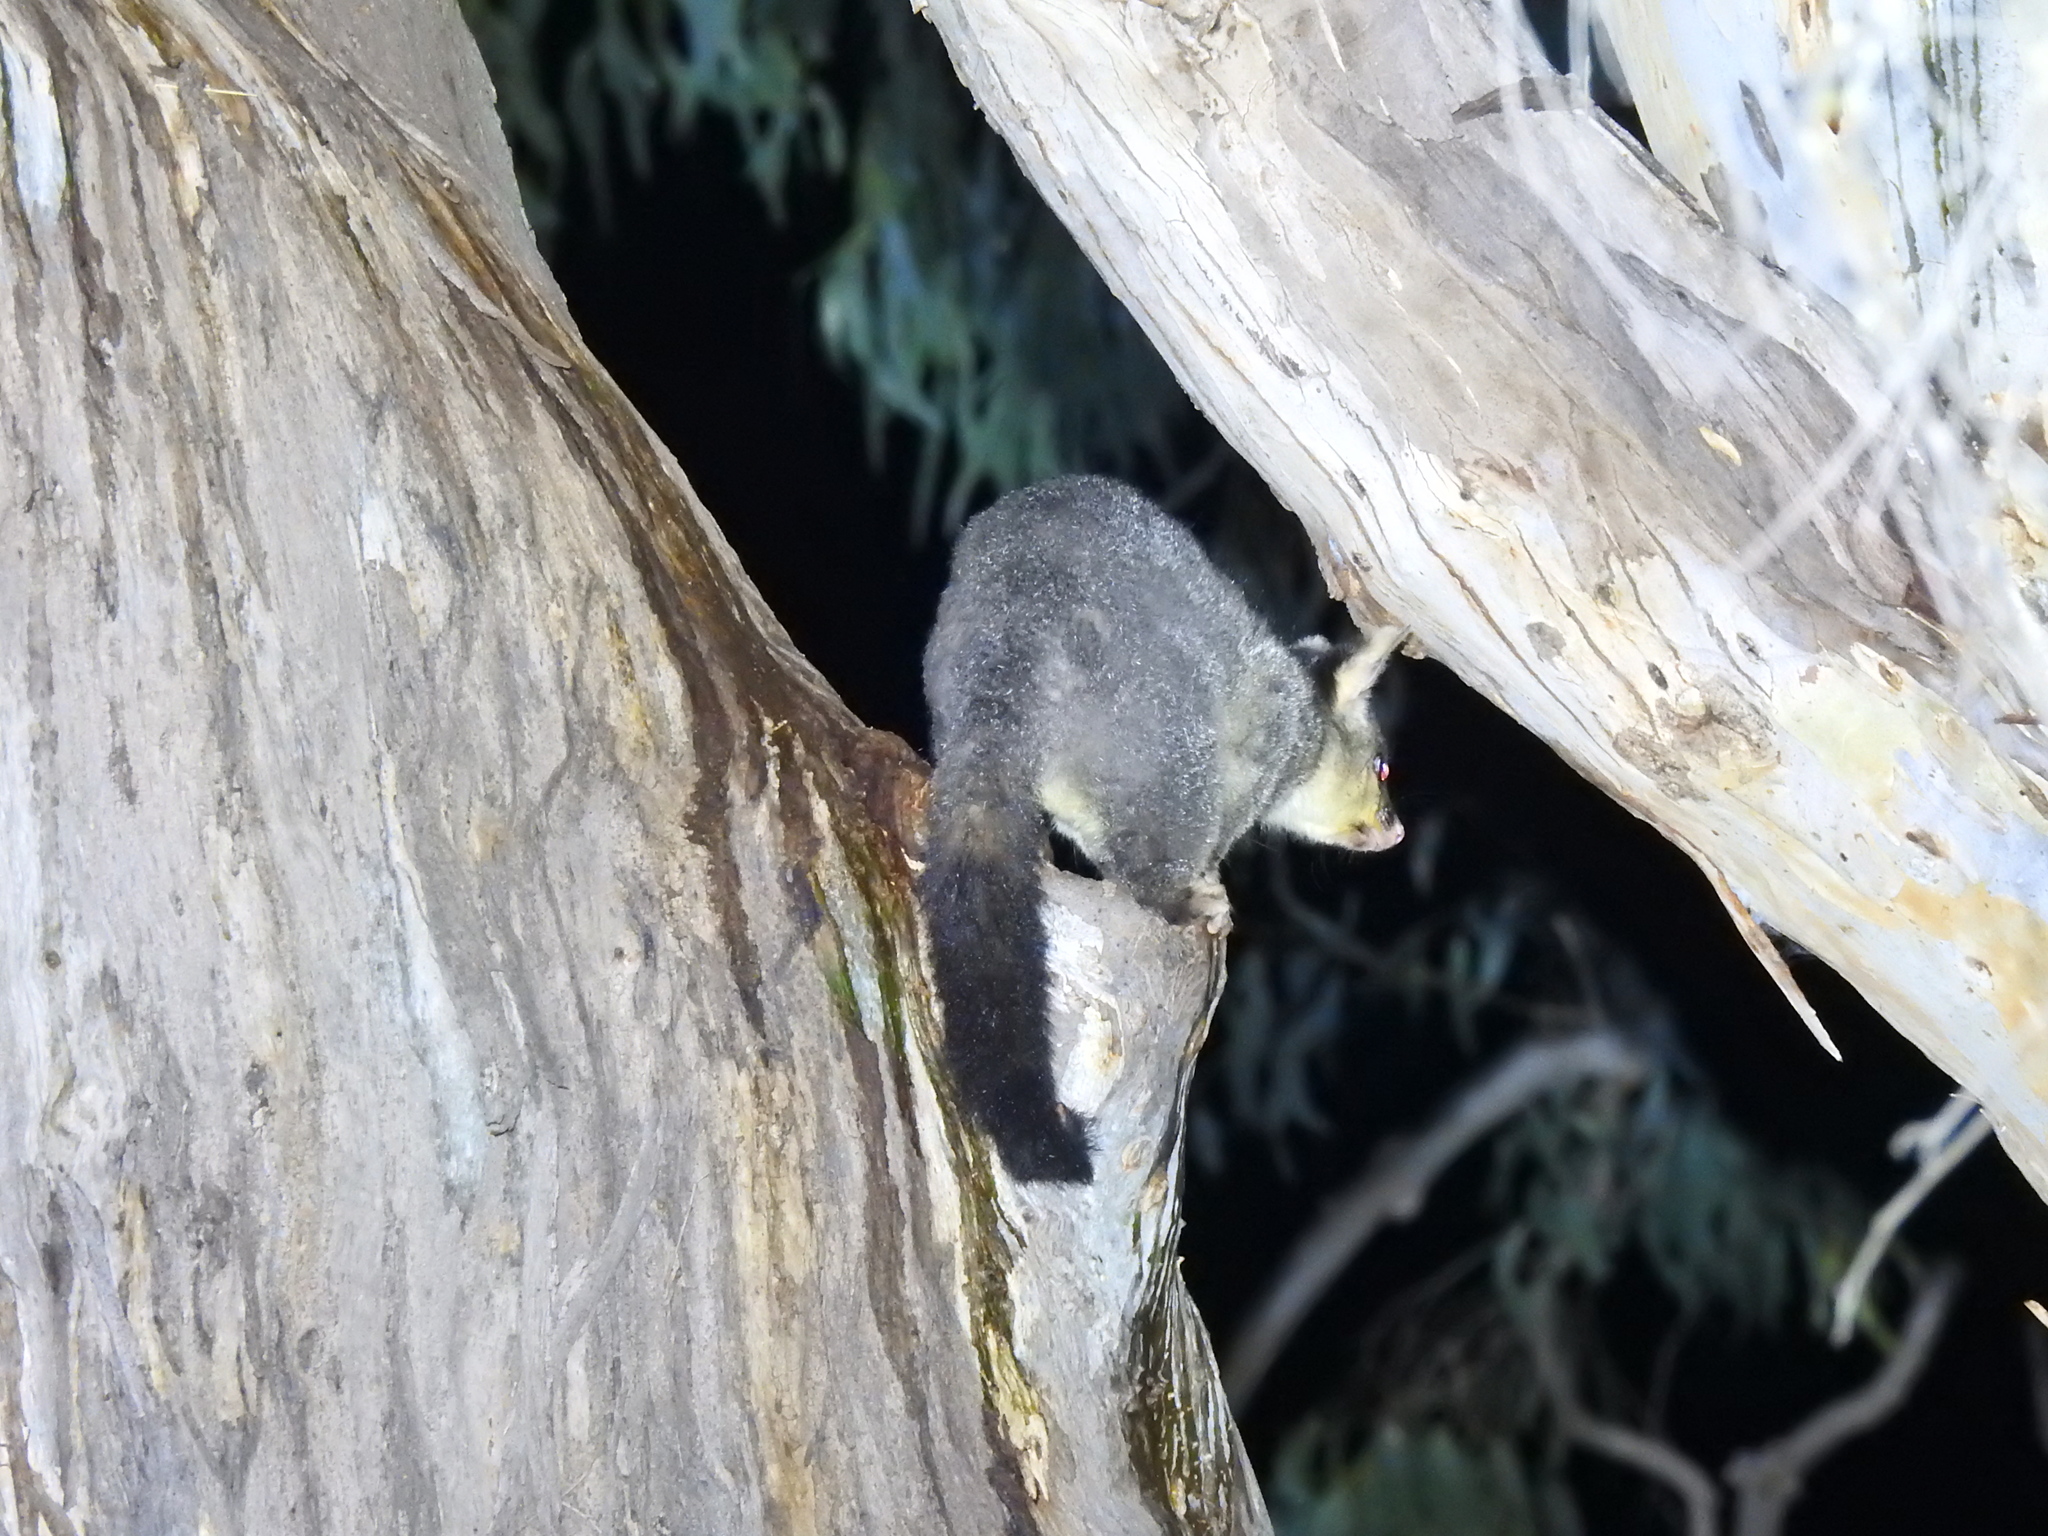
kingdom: Animalia
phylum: Chordata
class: Mammalia
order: Diprotodontia
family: Phalangeridae
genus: Trichosurus
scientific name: Trichosurus vulpecula
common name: Common brushtail
